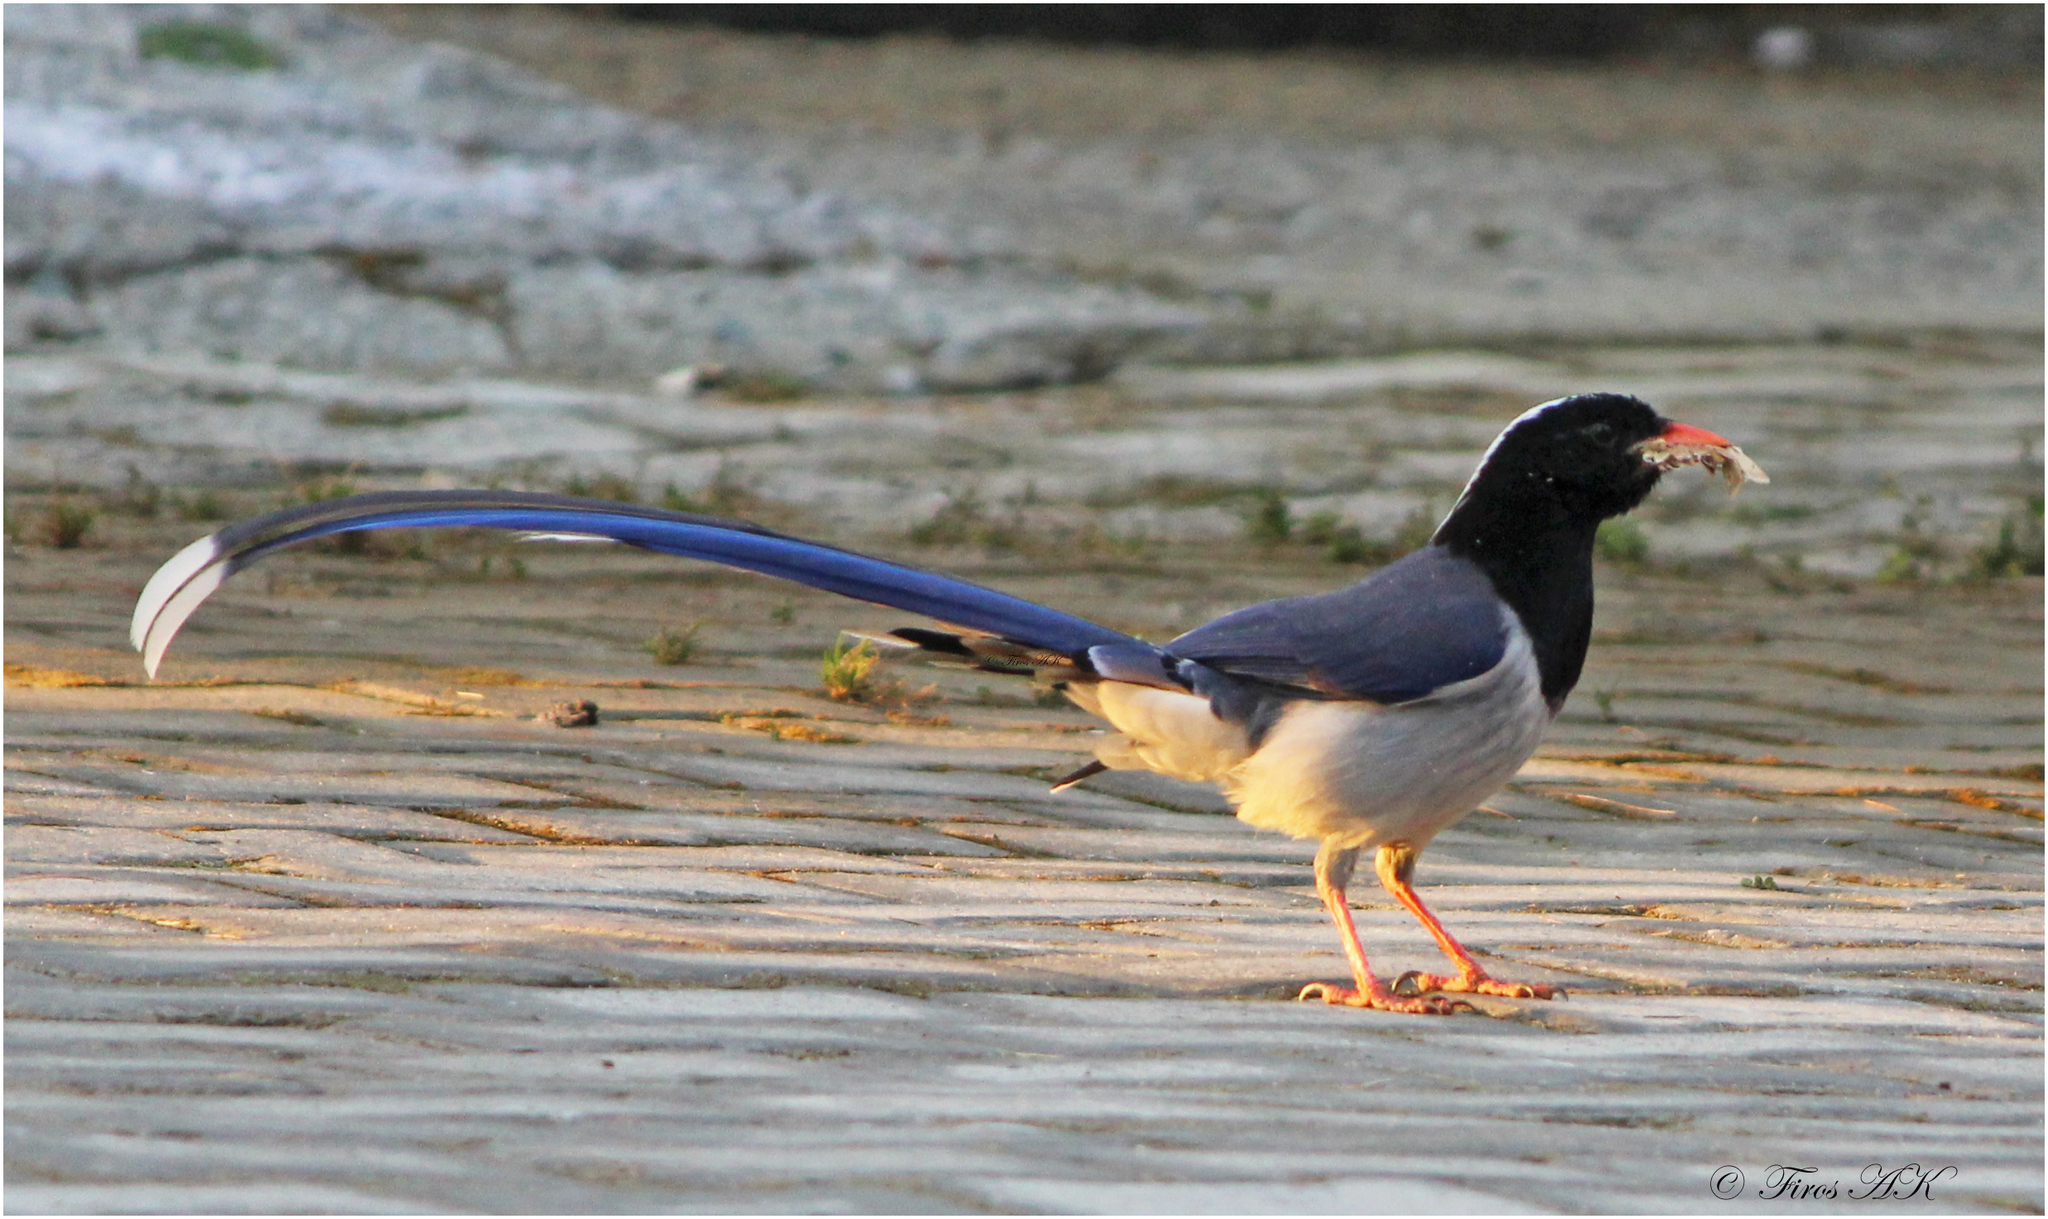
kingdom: Animalia
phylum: Chordata
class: Aves
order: Passeriformes
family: Corvidae
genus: Urocissa
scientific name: Urocissa erythroryncha
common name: Red-billed blue magpie
